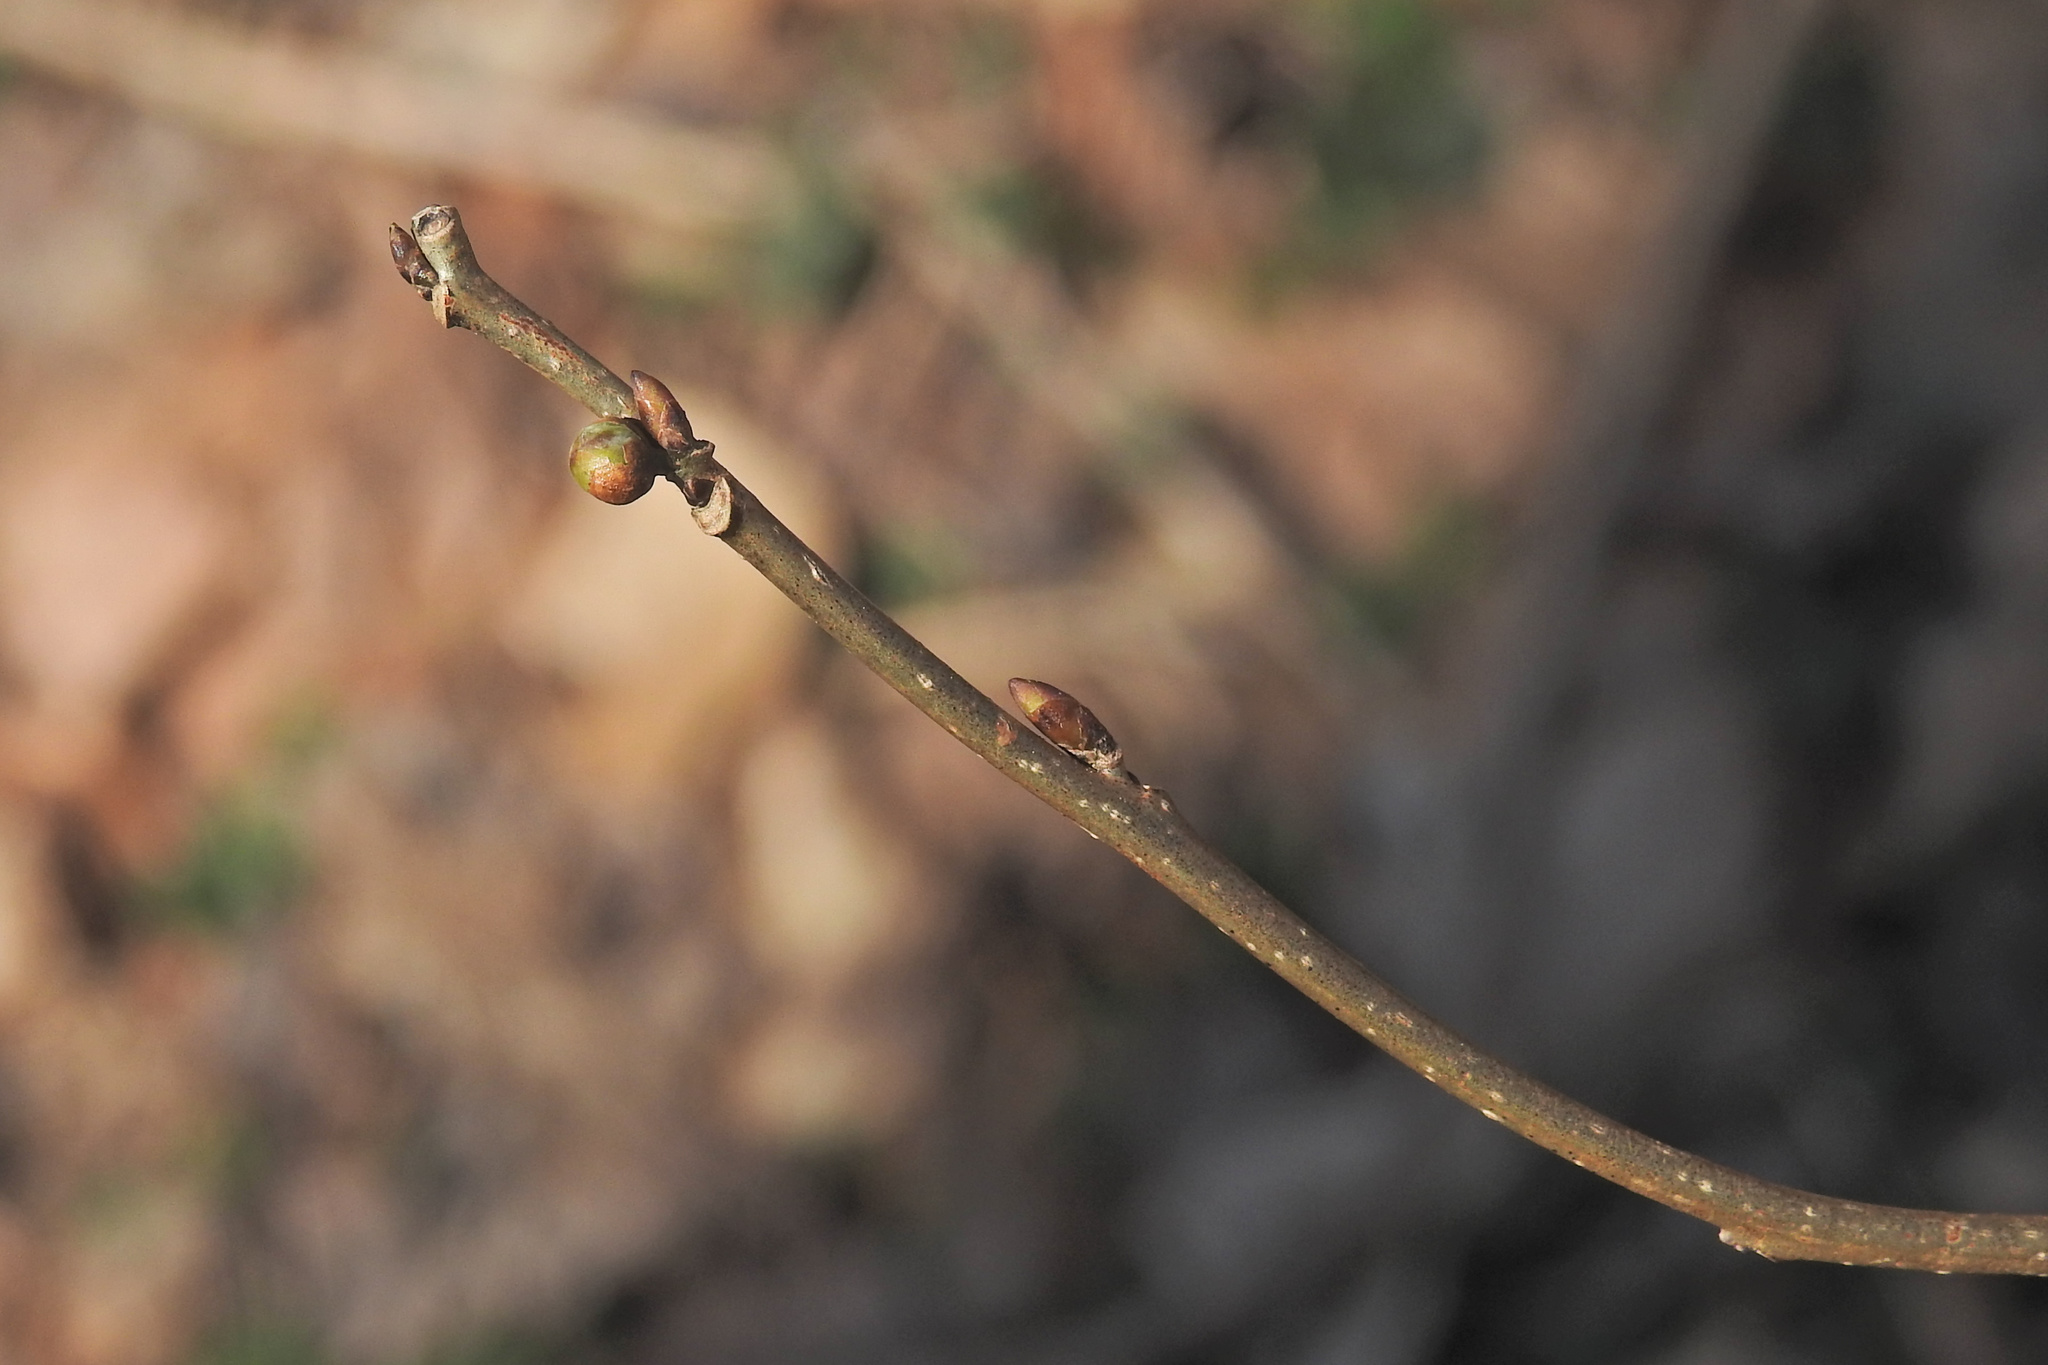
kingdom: Plantae
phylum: Tracheophyta
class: Magnoliopsida
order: Laurales
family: Lauraceae
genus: Lindera
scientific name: Lindera benzoin
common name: Spicebush
